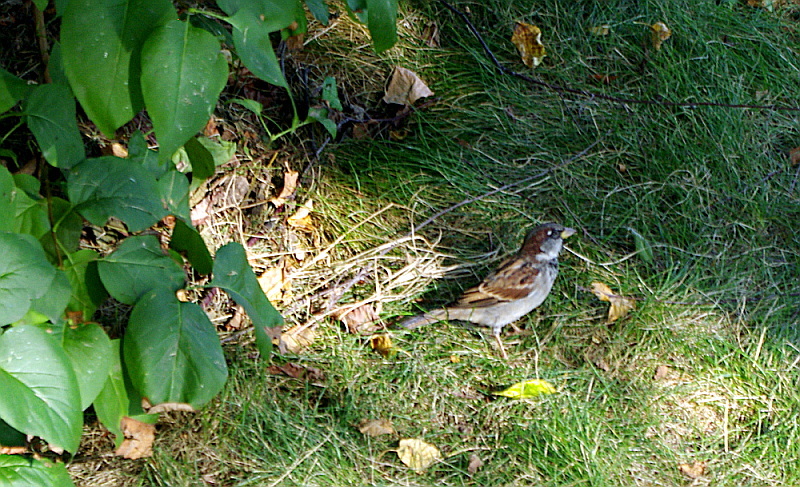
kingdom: Animalia
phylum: Chordata
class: Aves
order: Passeriformes
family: Passeridae
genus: Passer
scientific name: Passer domesticus
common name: House sparrow
